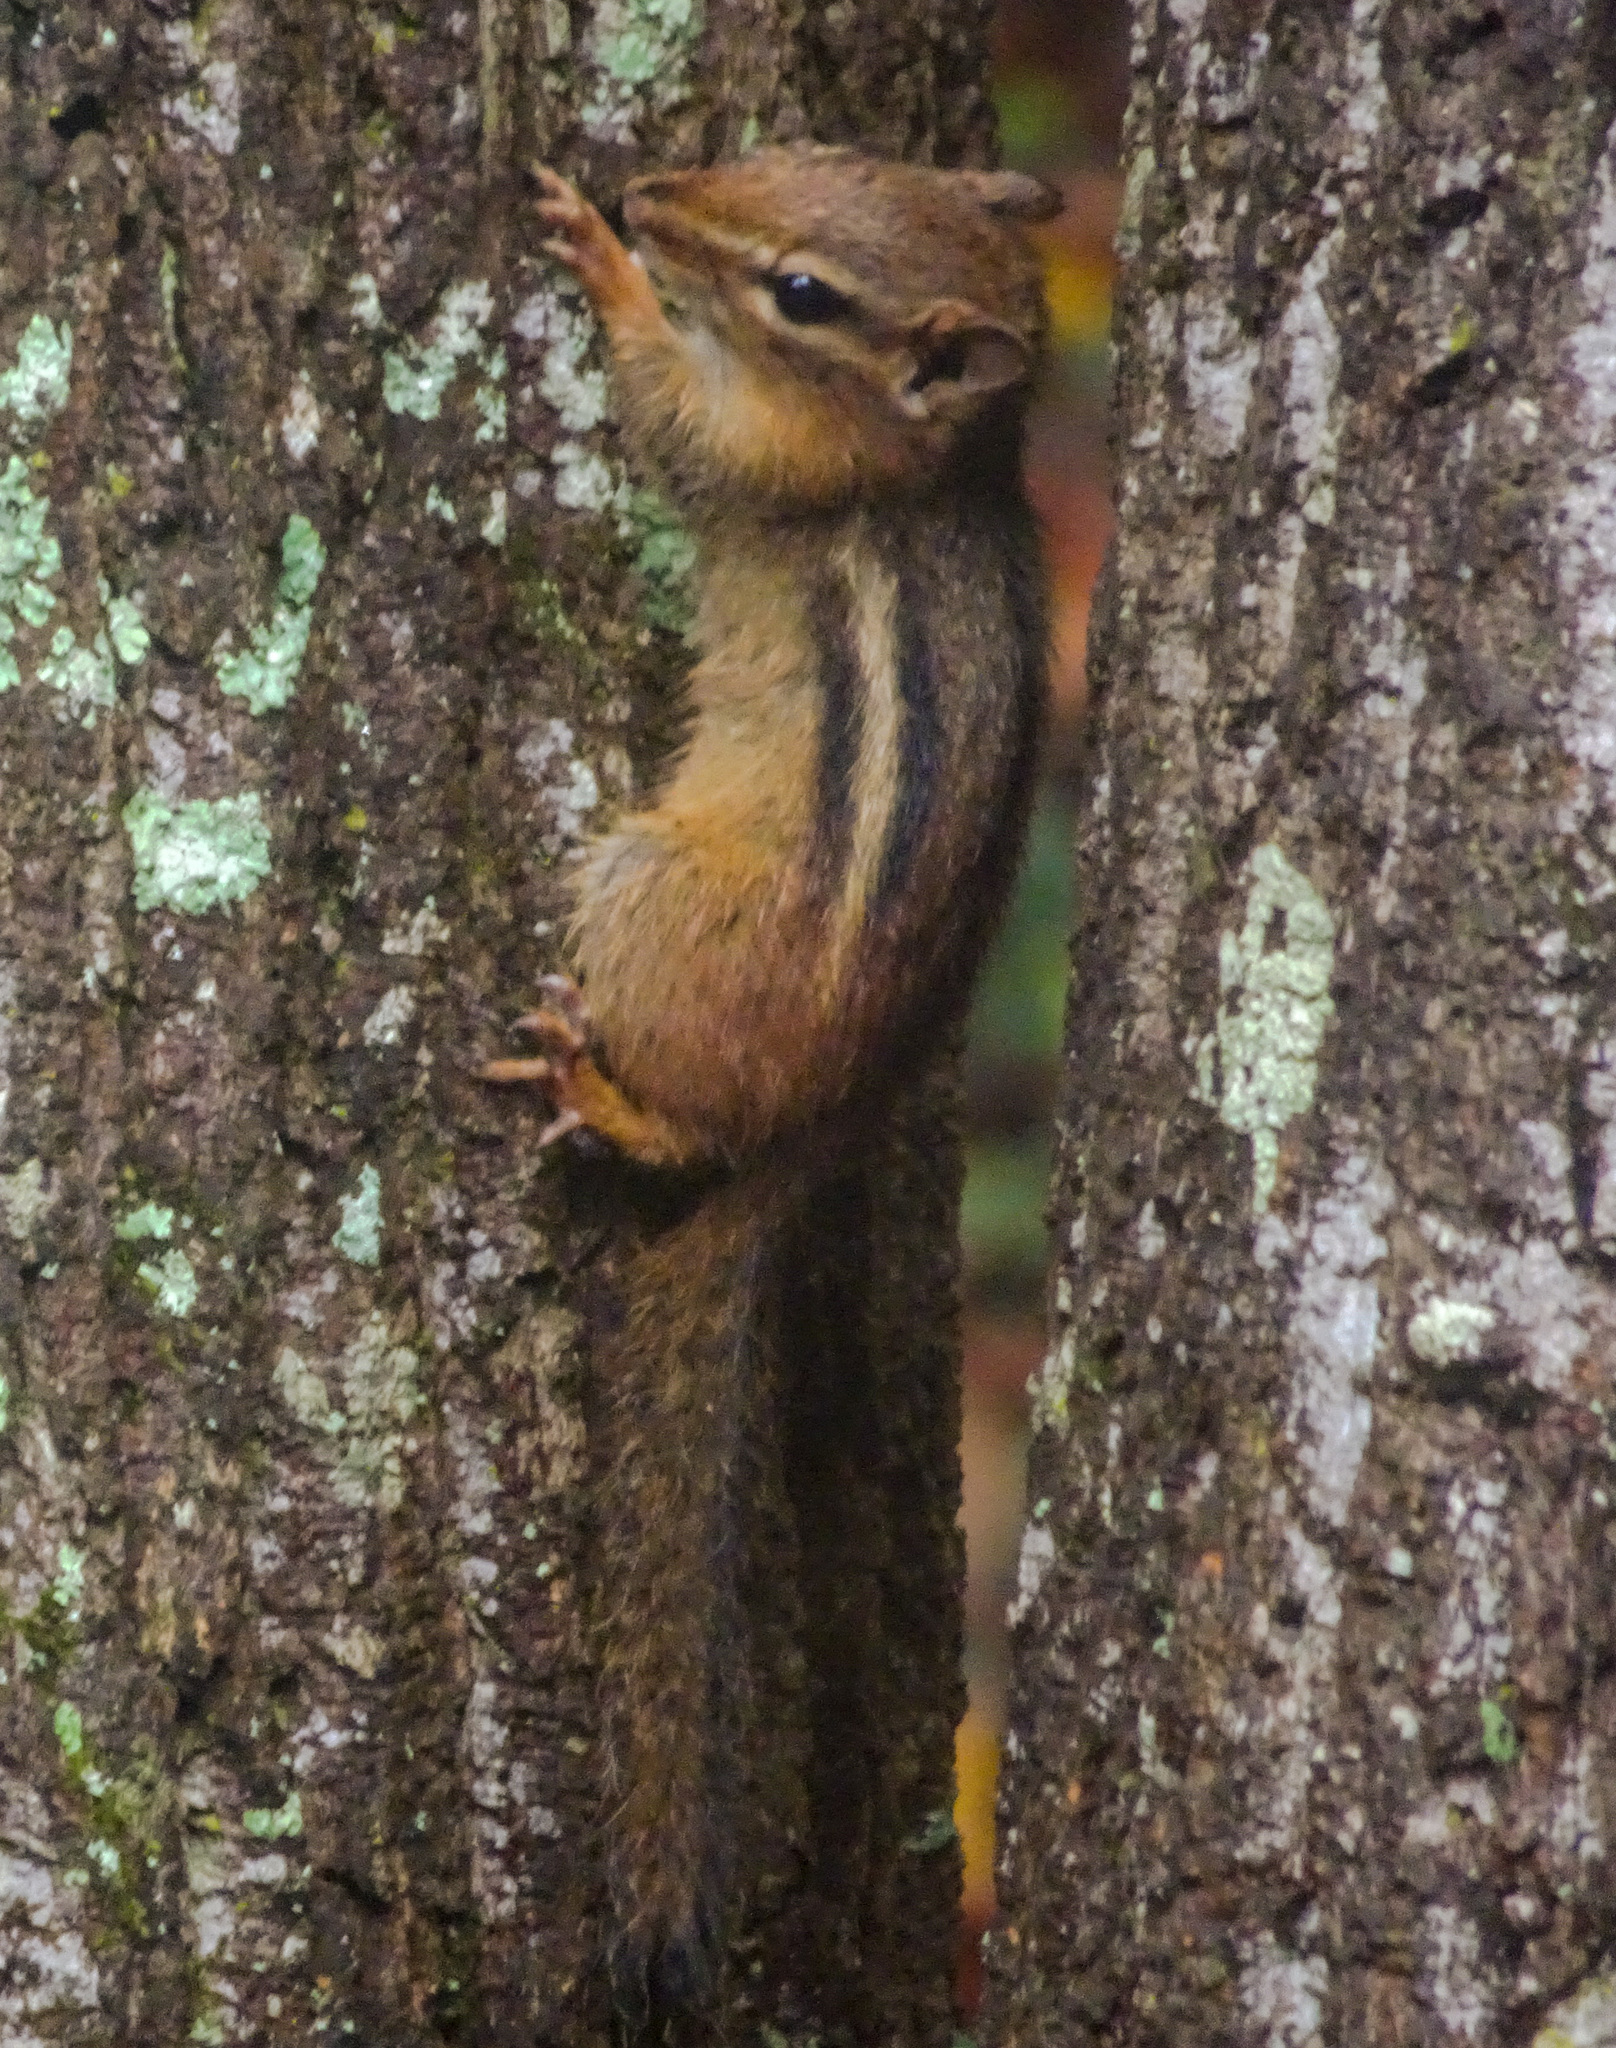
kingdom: Animalia
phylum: Chordata
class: Mammalia
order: Rodentia
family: Sciuridae
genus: Tamias
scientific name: Tamias striatus
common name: Eastern chipmunk
